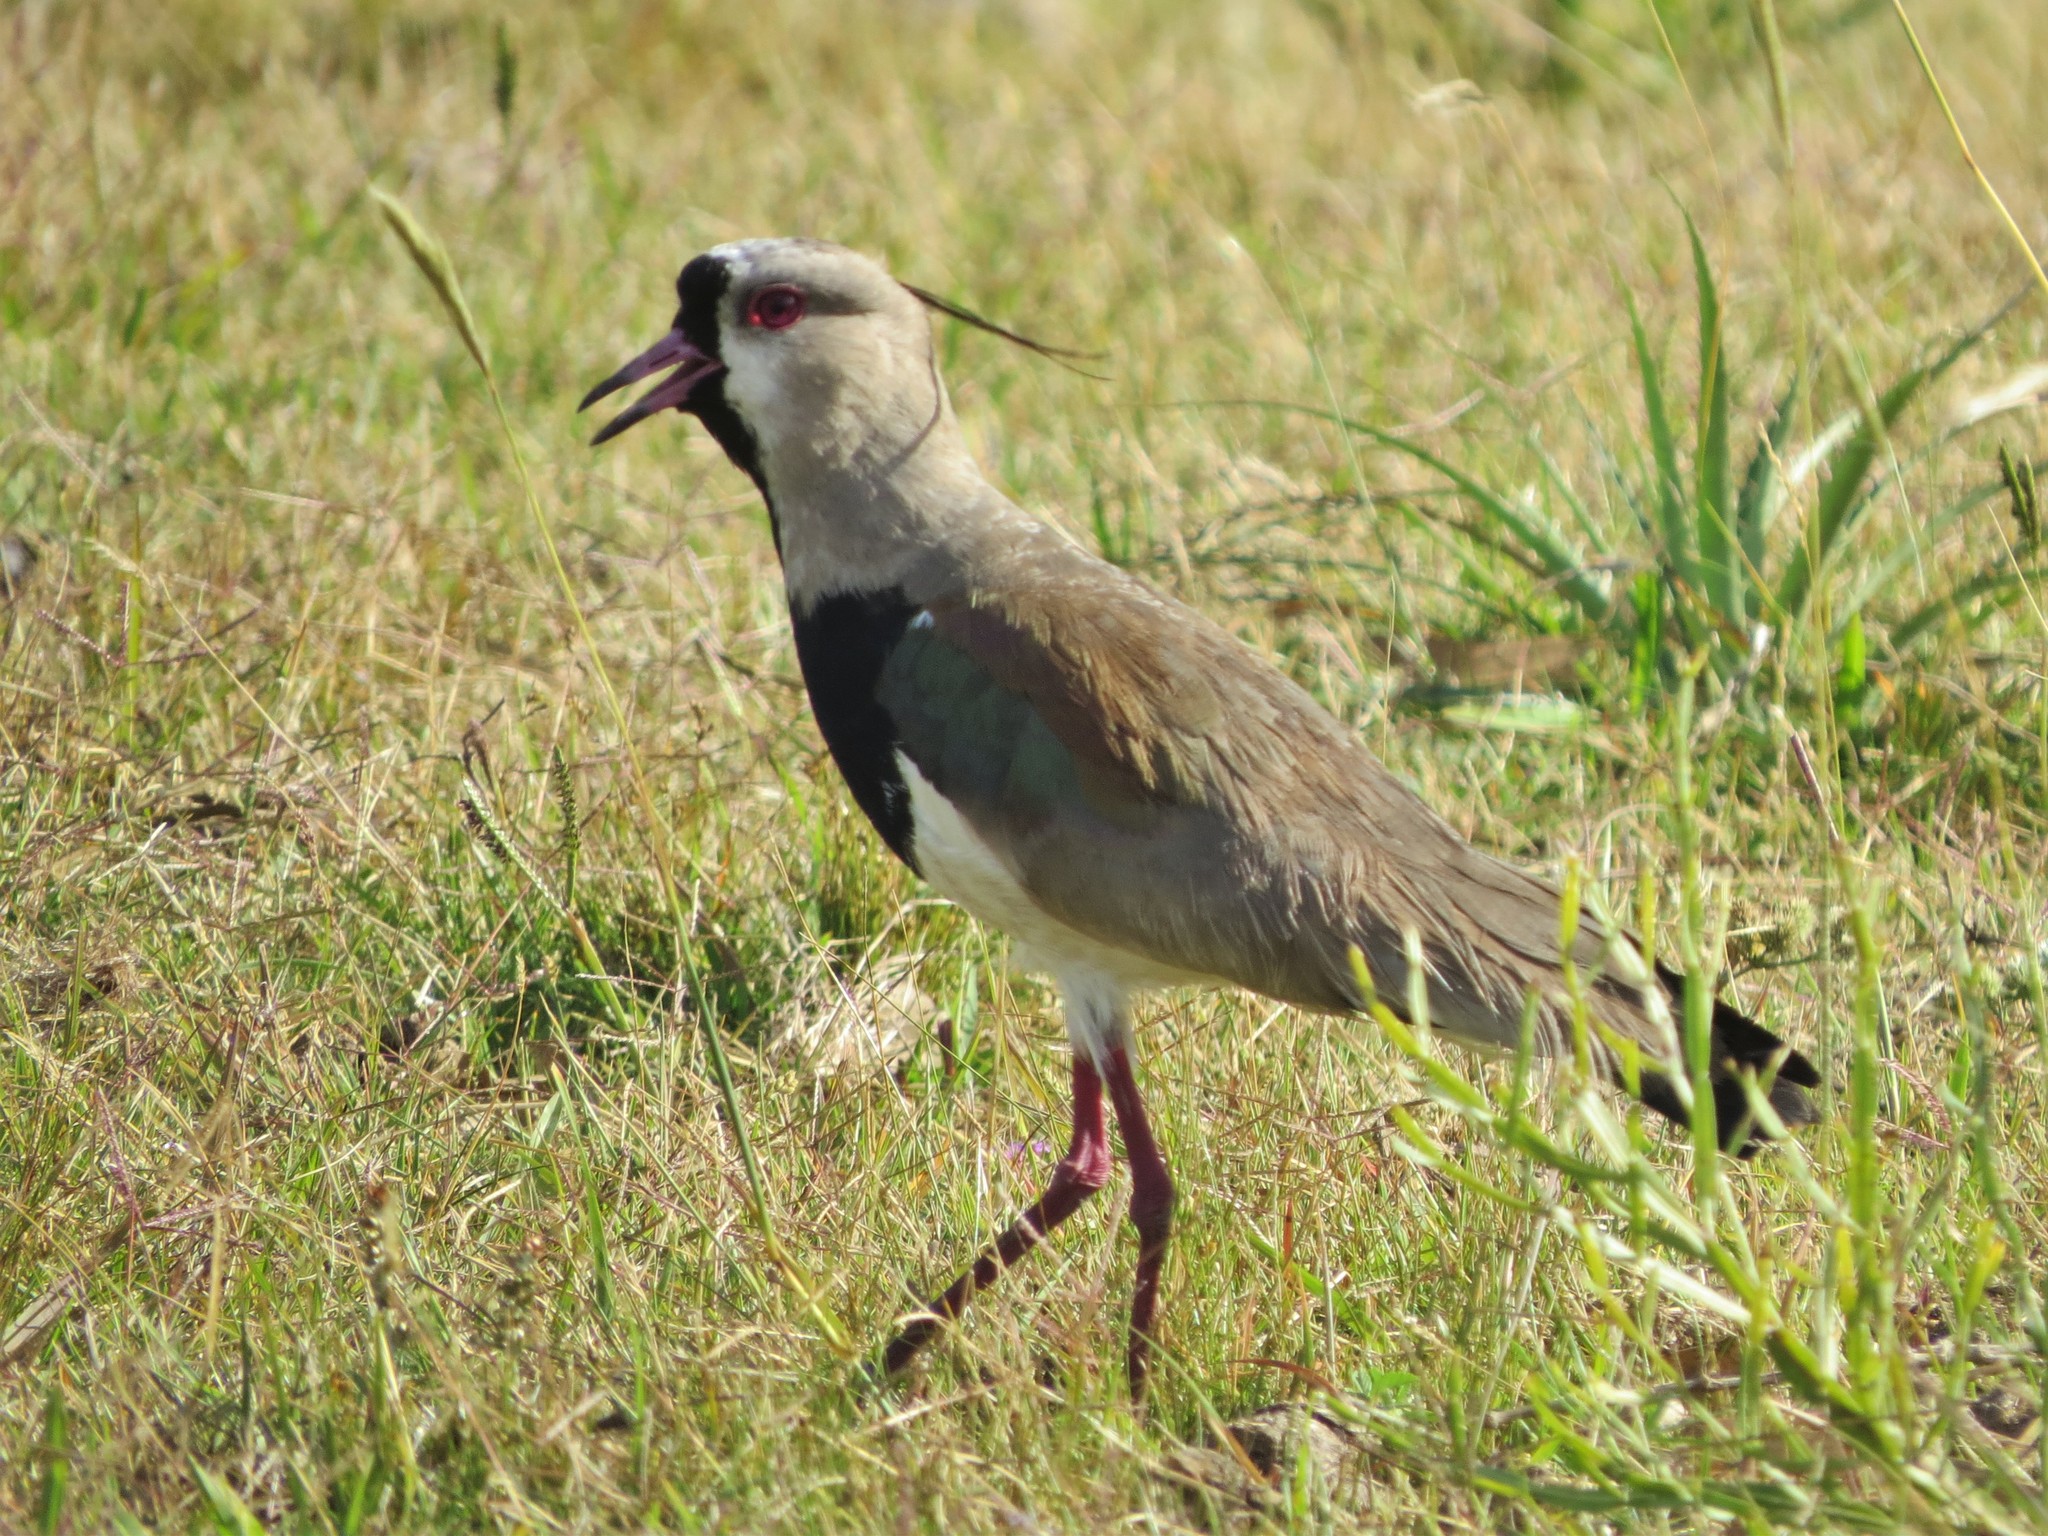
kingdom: Animalia
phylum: Chordata
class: Aves
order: Charadriiformes
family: Charadriidae
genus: Vanellus
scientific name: Vanellus chilensis
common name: Southern lapwing
